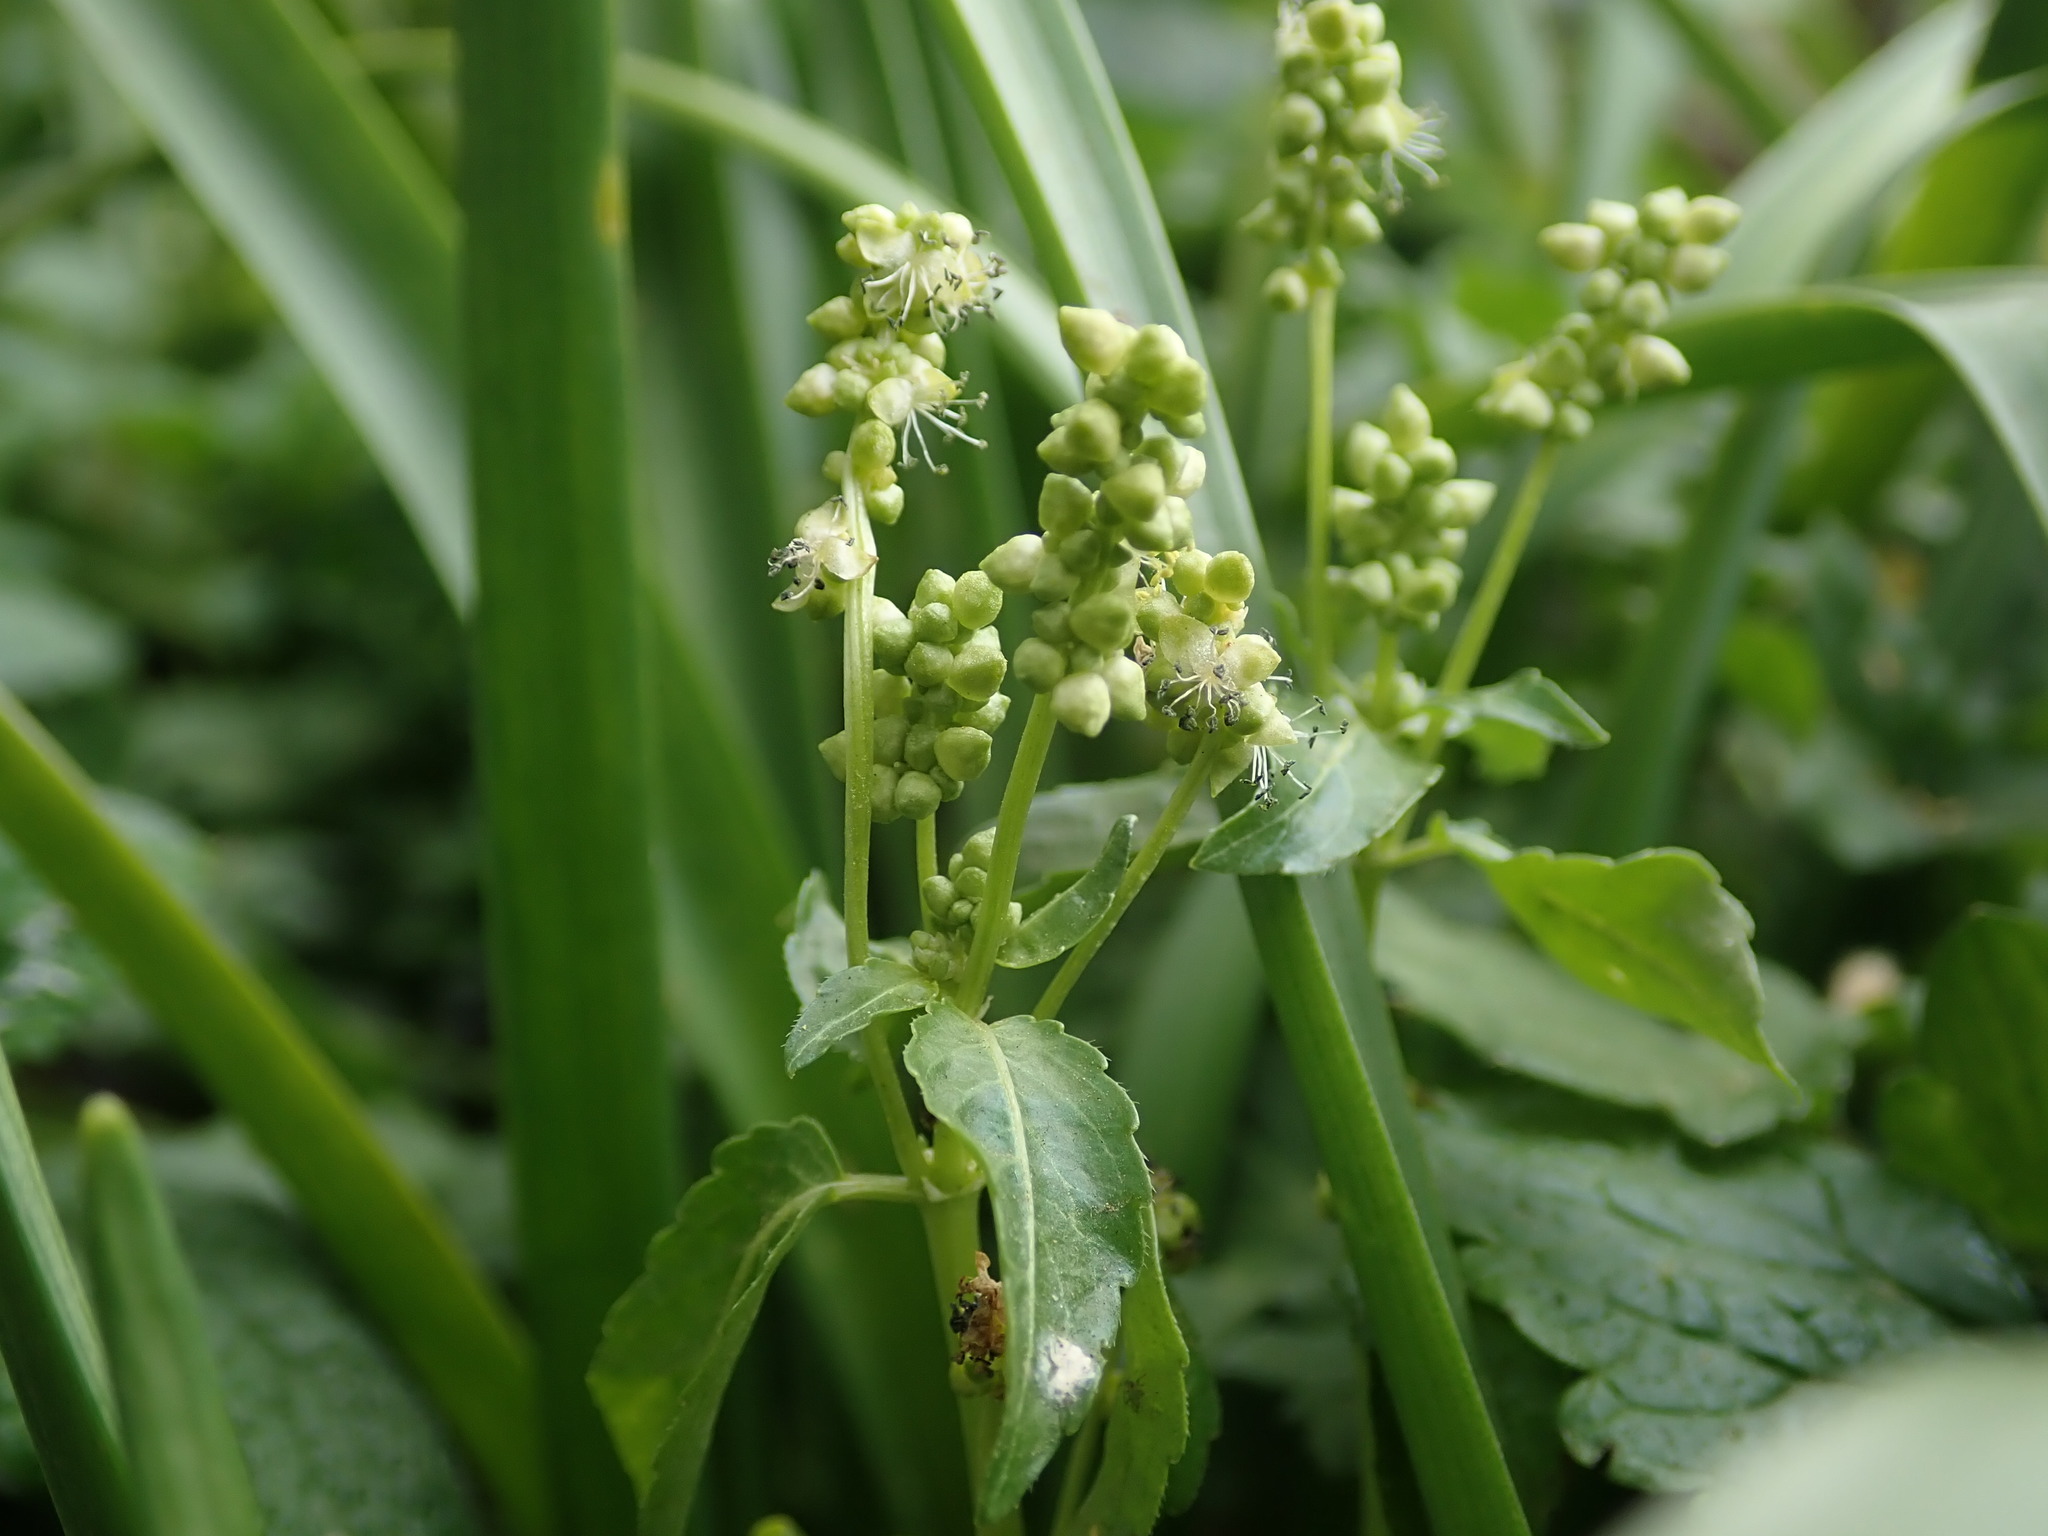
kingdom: Plantae
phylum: Tracheophyta
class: Magnoliopsida
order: Malpighiales
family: Euphorbiaceae
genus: Mercurialis
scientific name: Mercurialis annua
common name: Annual mercury
